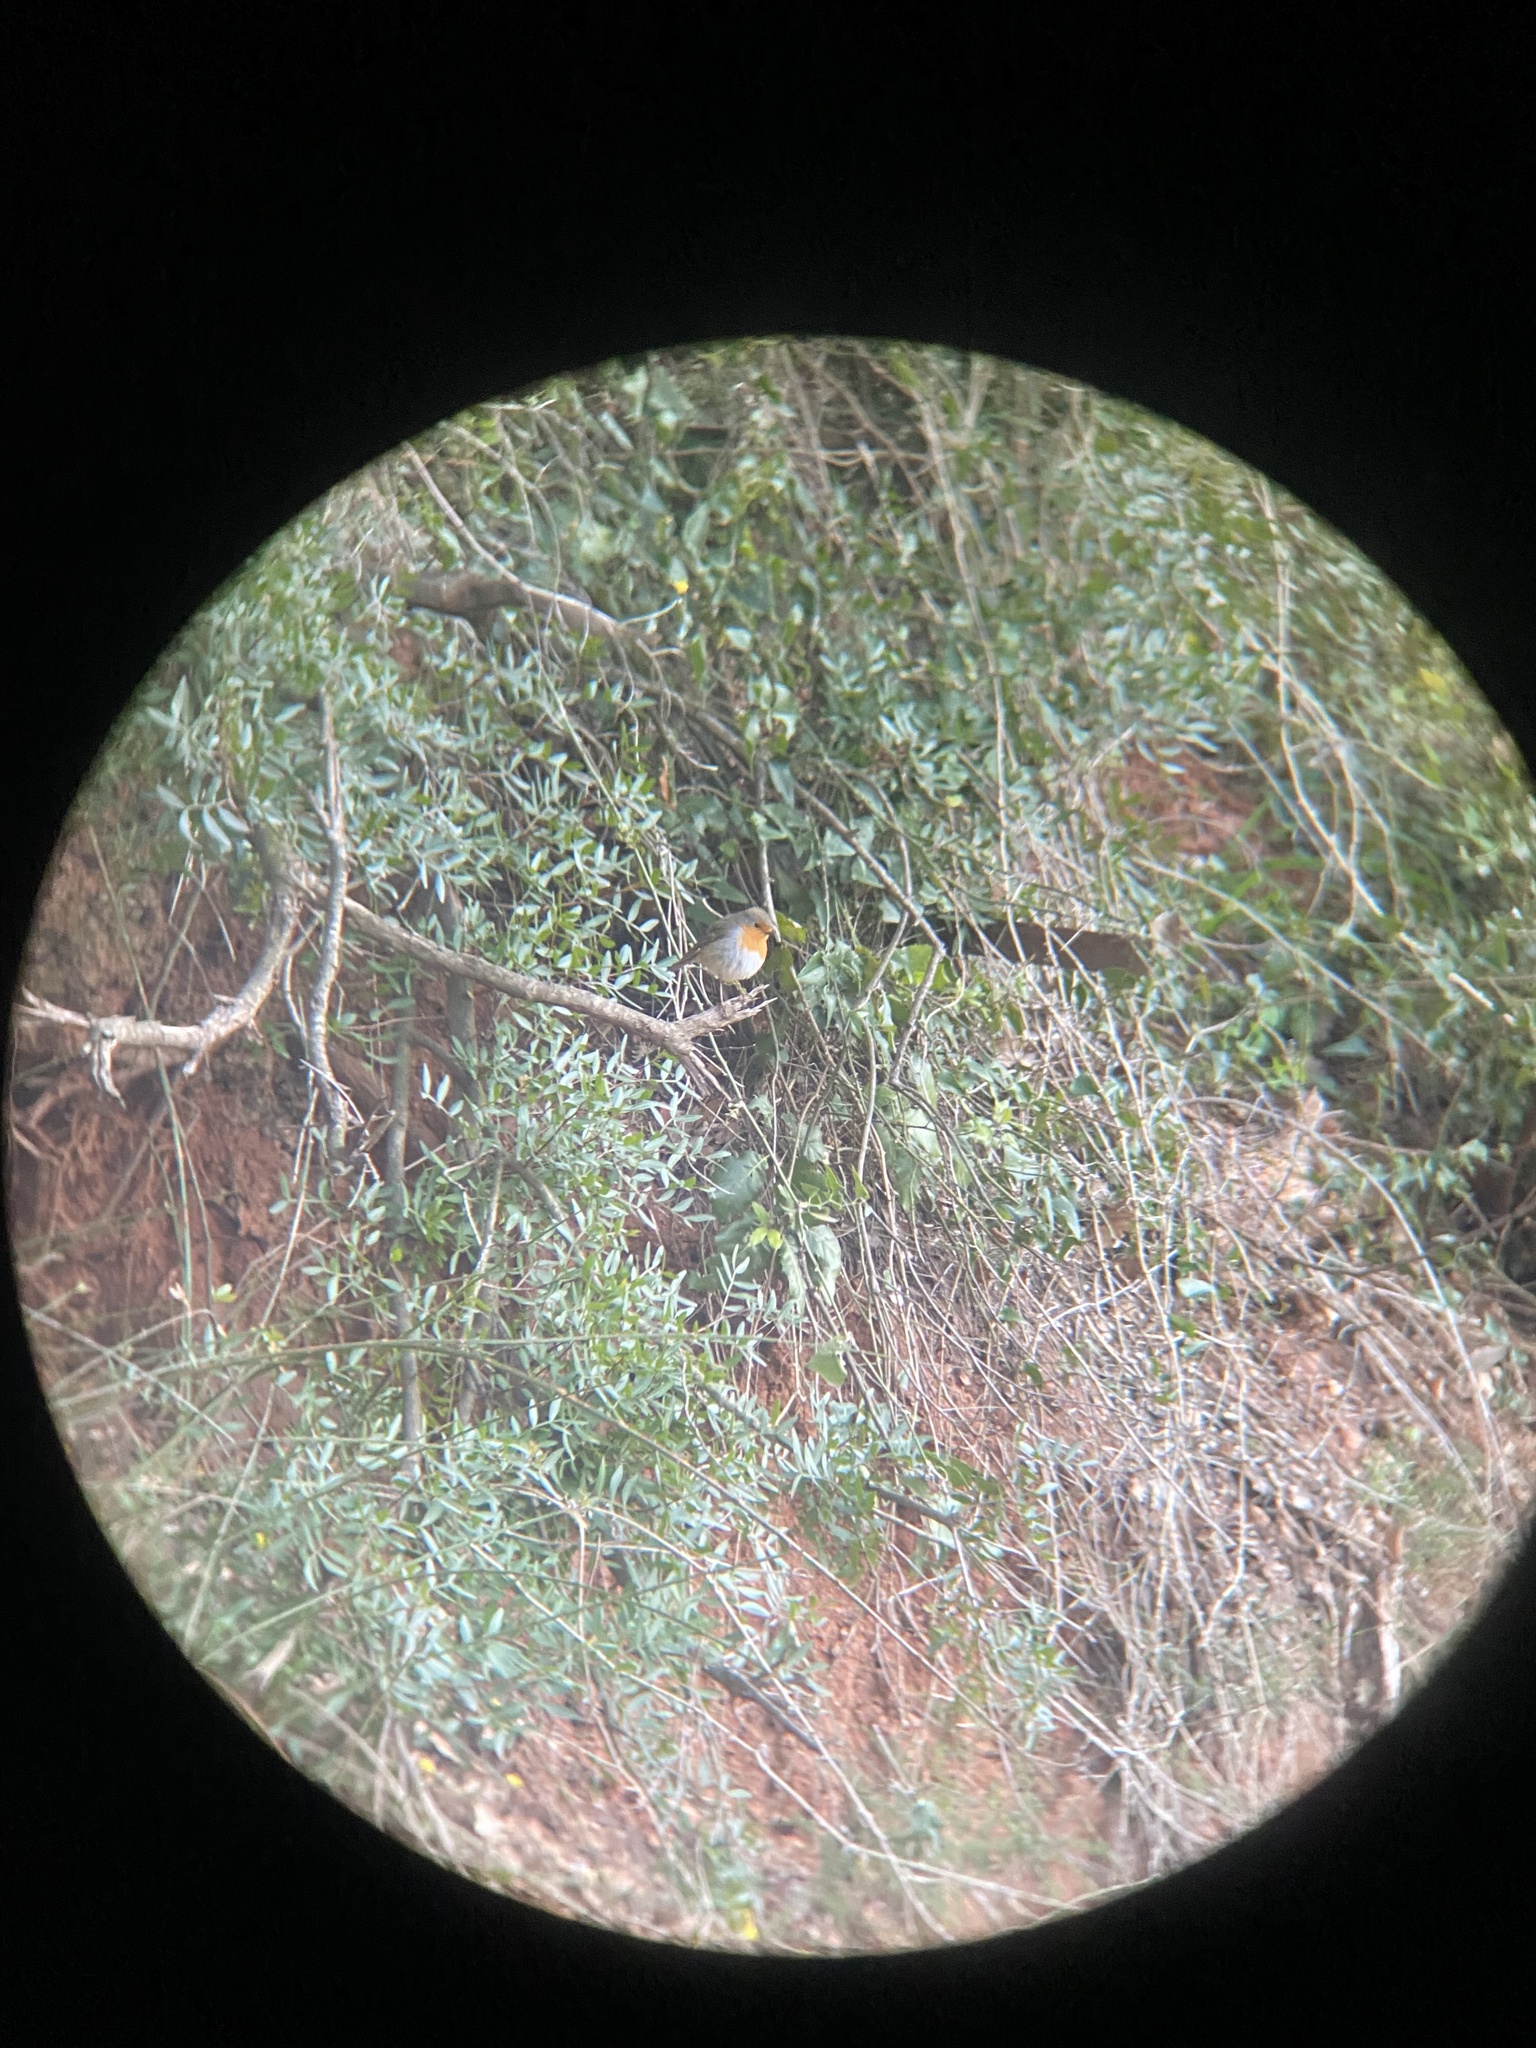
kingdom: Animalia
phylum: Chordata
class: Aves
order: Passeriformes
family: Muscicapidae
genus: Erithacus
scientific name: Erithacus rubecula
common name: European robin
